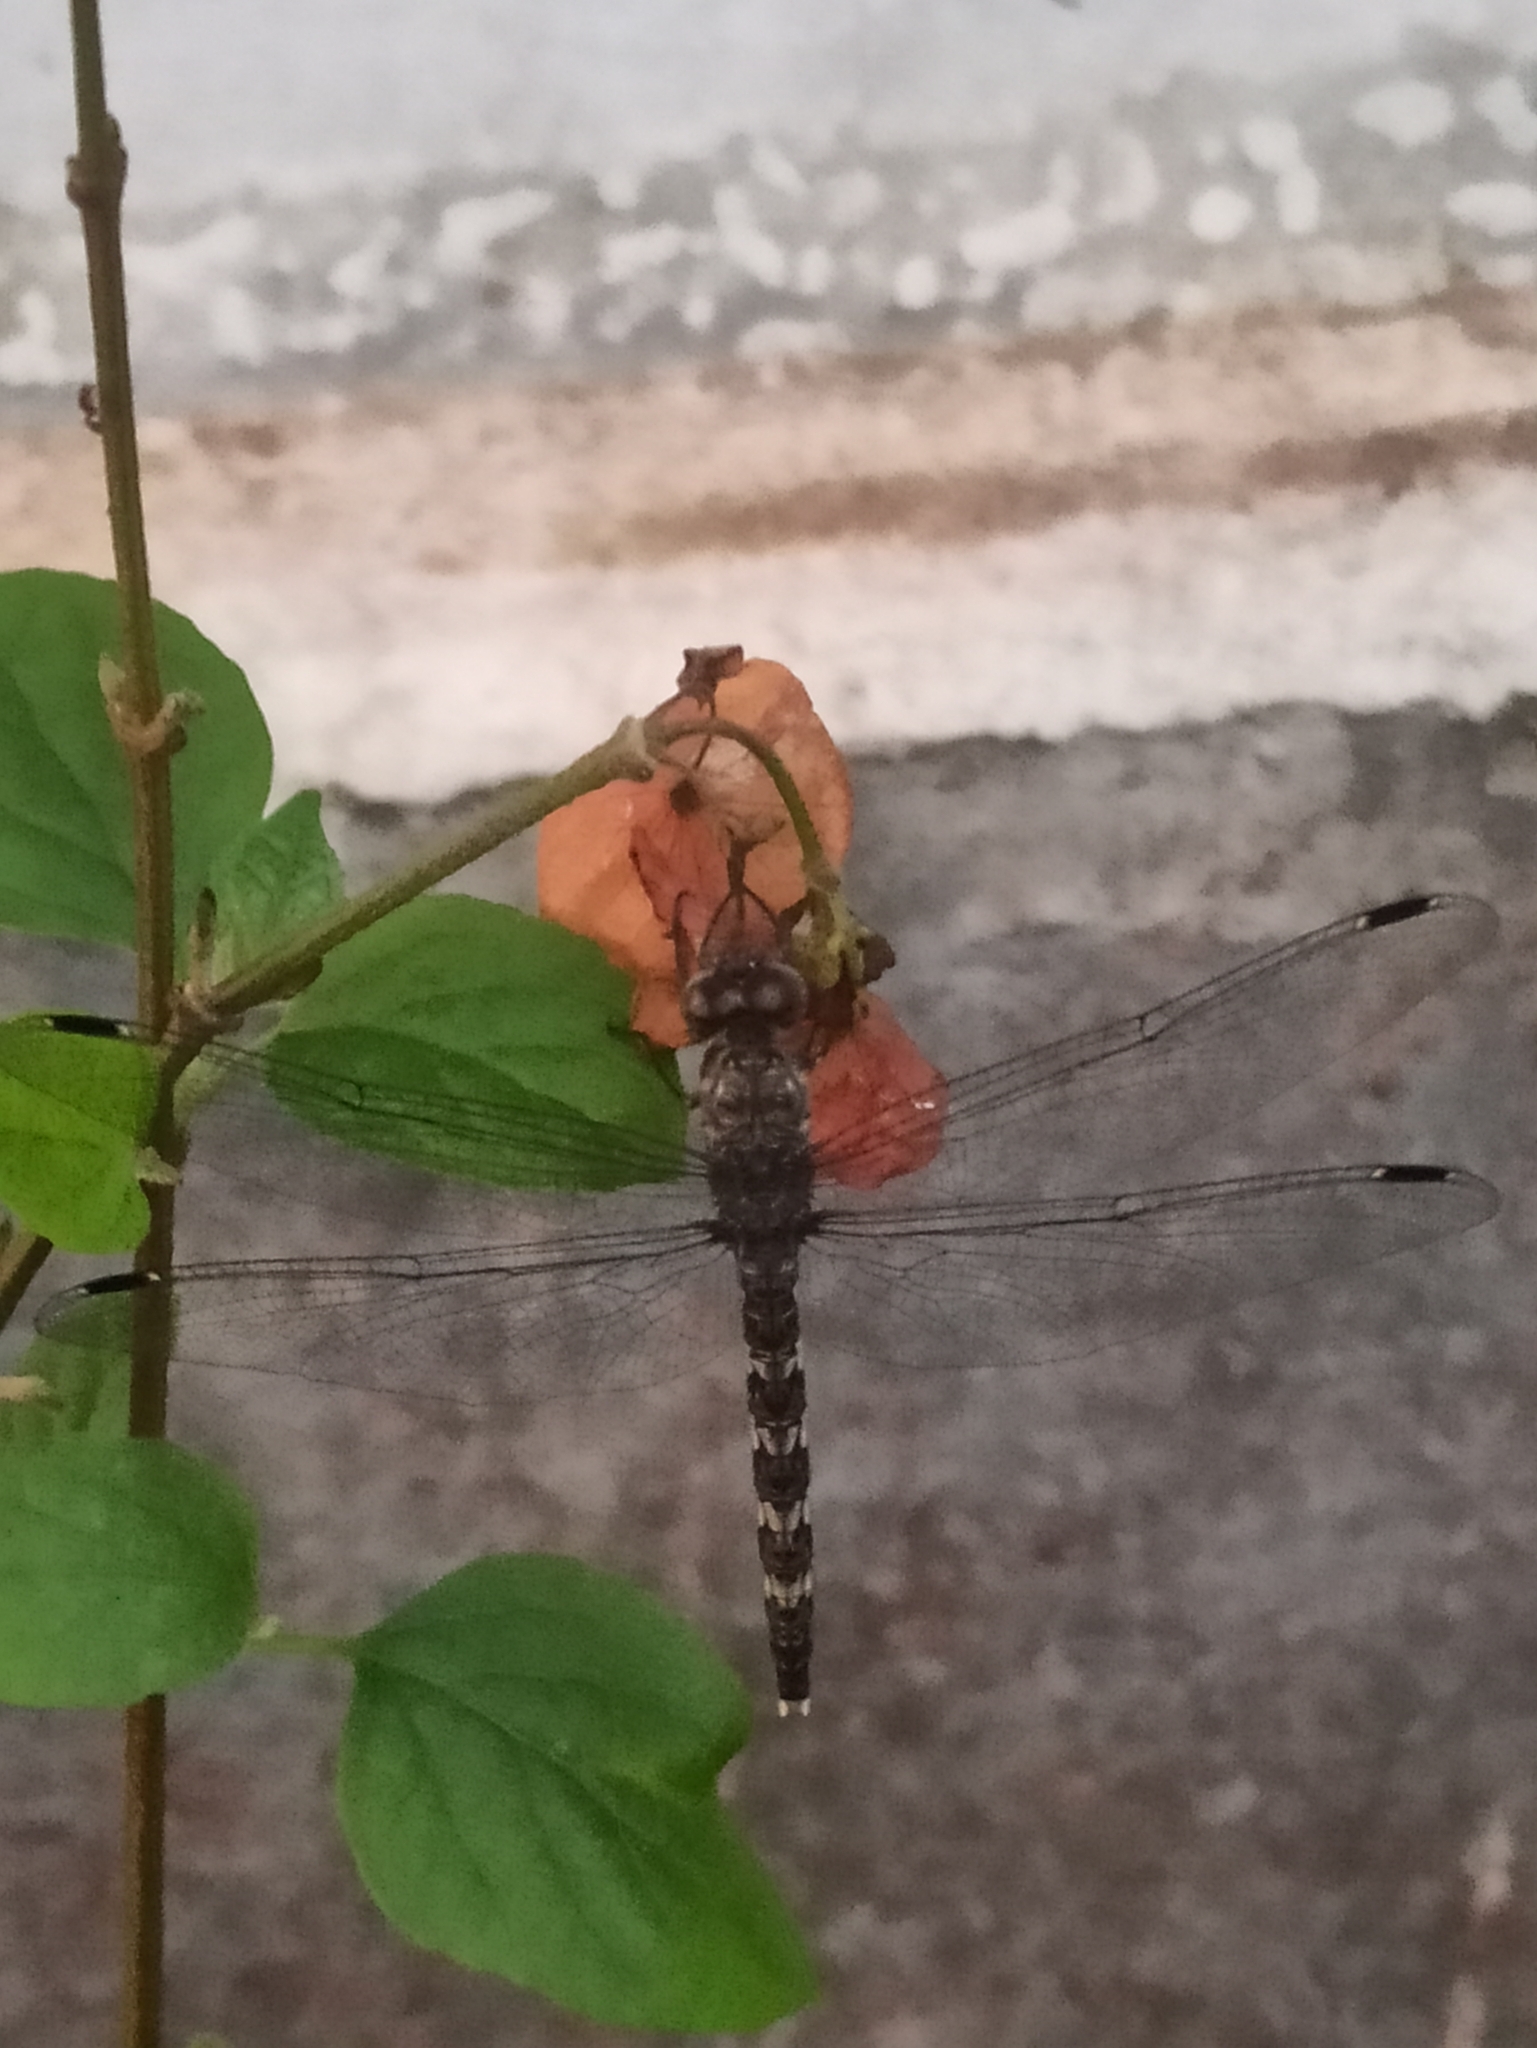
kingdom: Animalia
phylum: Arthropoda
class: Insecta
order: Odonata
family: Libellulidae
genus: Bradinopyga
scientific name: Bradinopyga geminata
